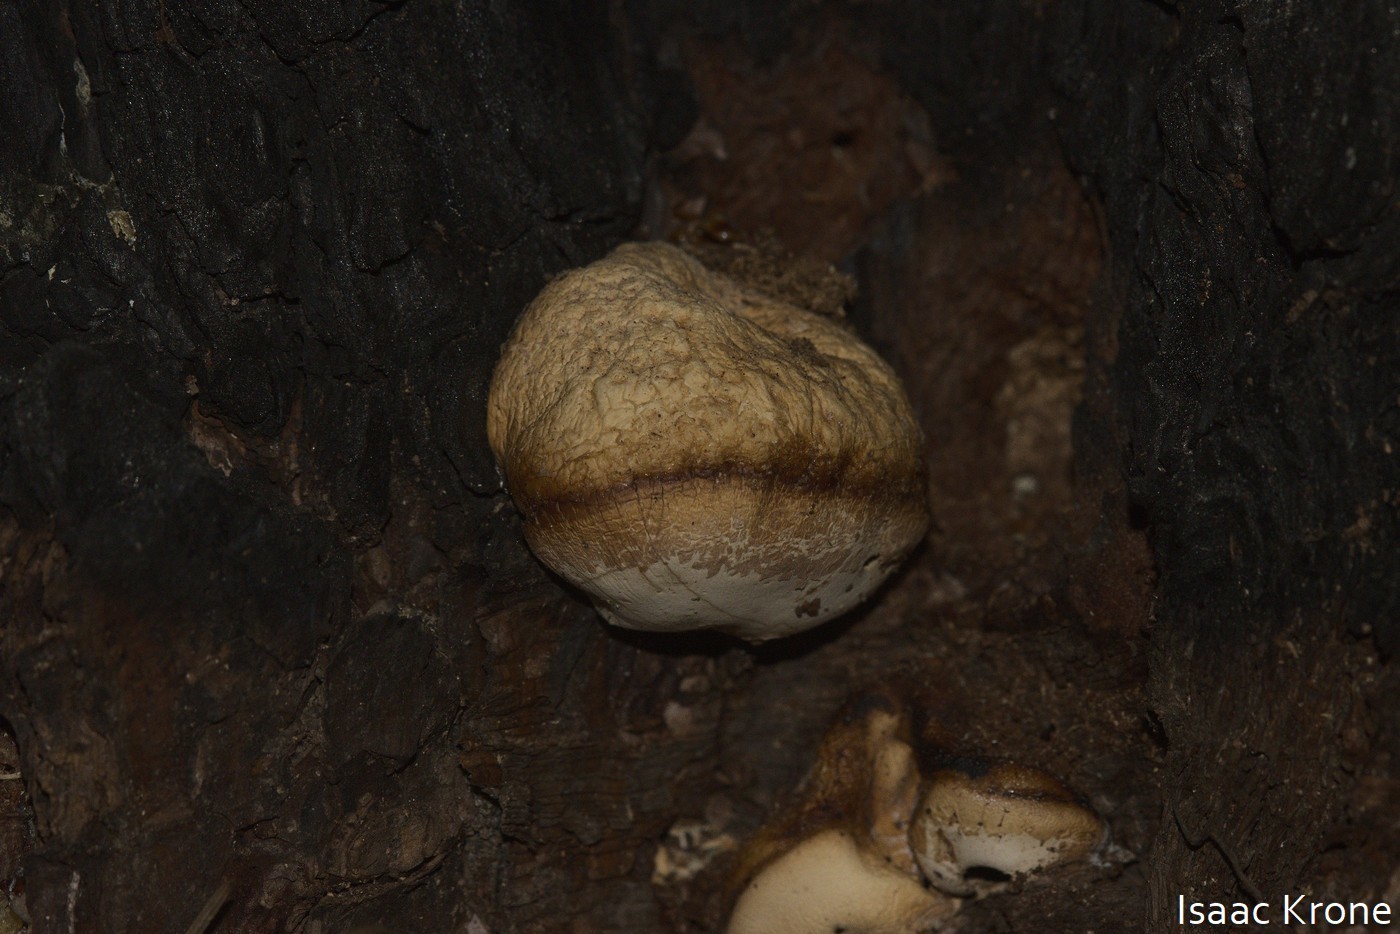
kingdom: Fungi
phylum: Basidiomycota
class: Agaricomycetes
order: Polyporales
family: Polyporaceae
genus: Cryptoporus
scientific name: Cryptoporus volvatus
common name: Veiled polypore
